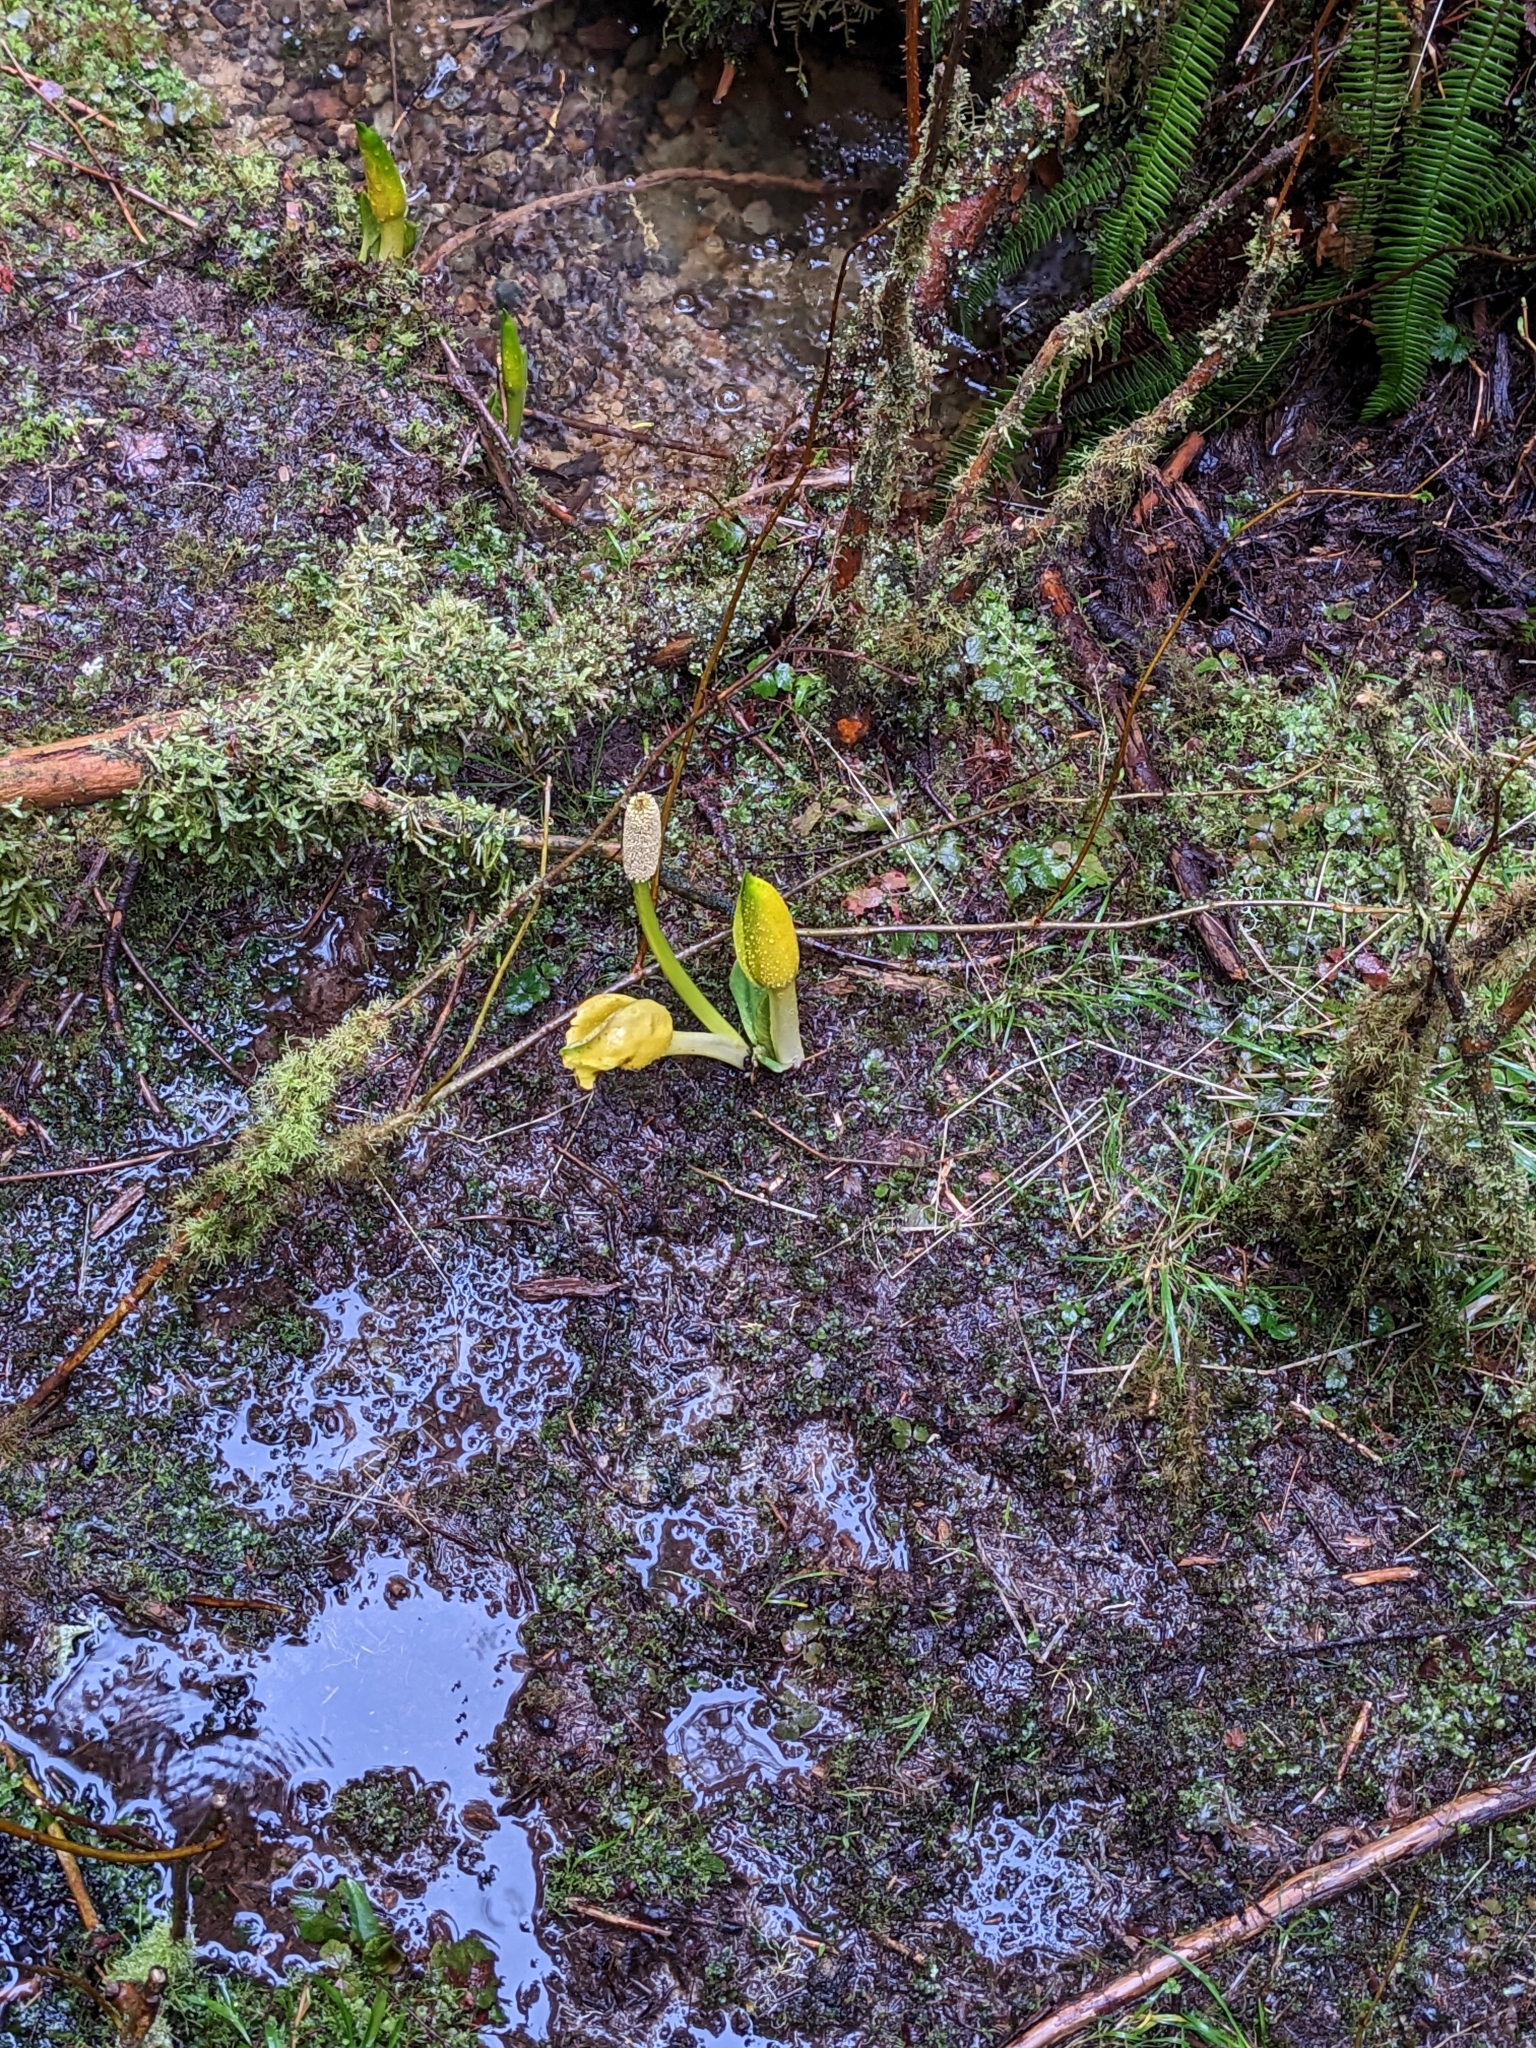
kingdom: Plantae
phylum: Tracheophyta
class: Liliopsida
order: Alismatales
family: Araceae
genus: Lysichiton
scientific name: Lysichiton americanus
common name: American skunk cabbage
